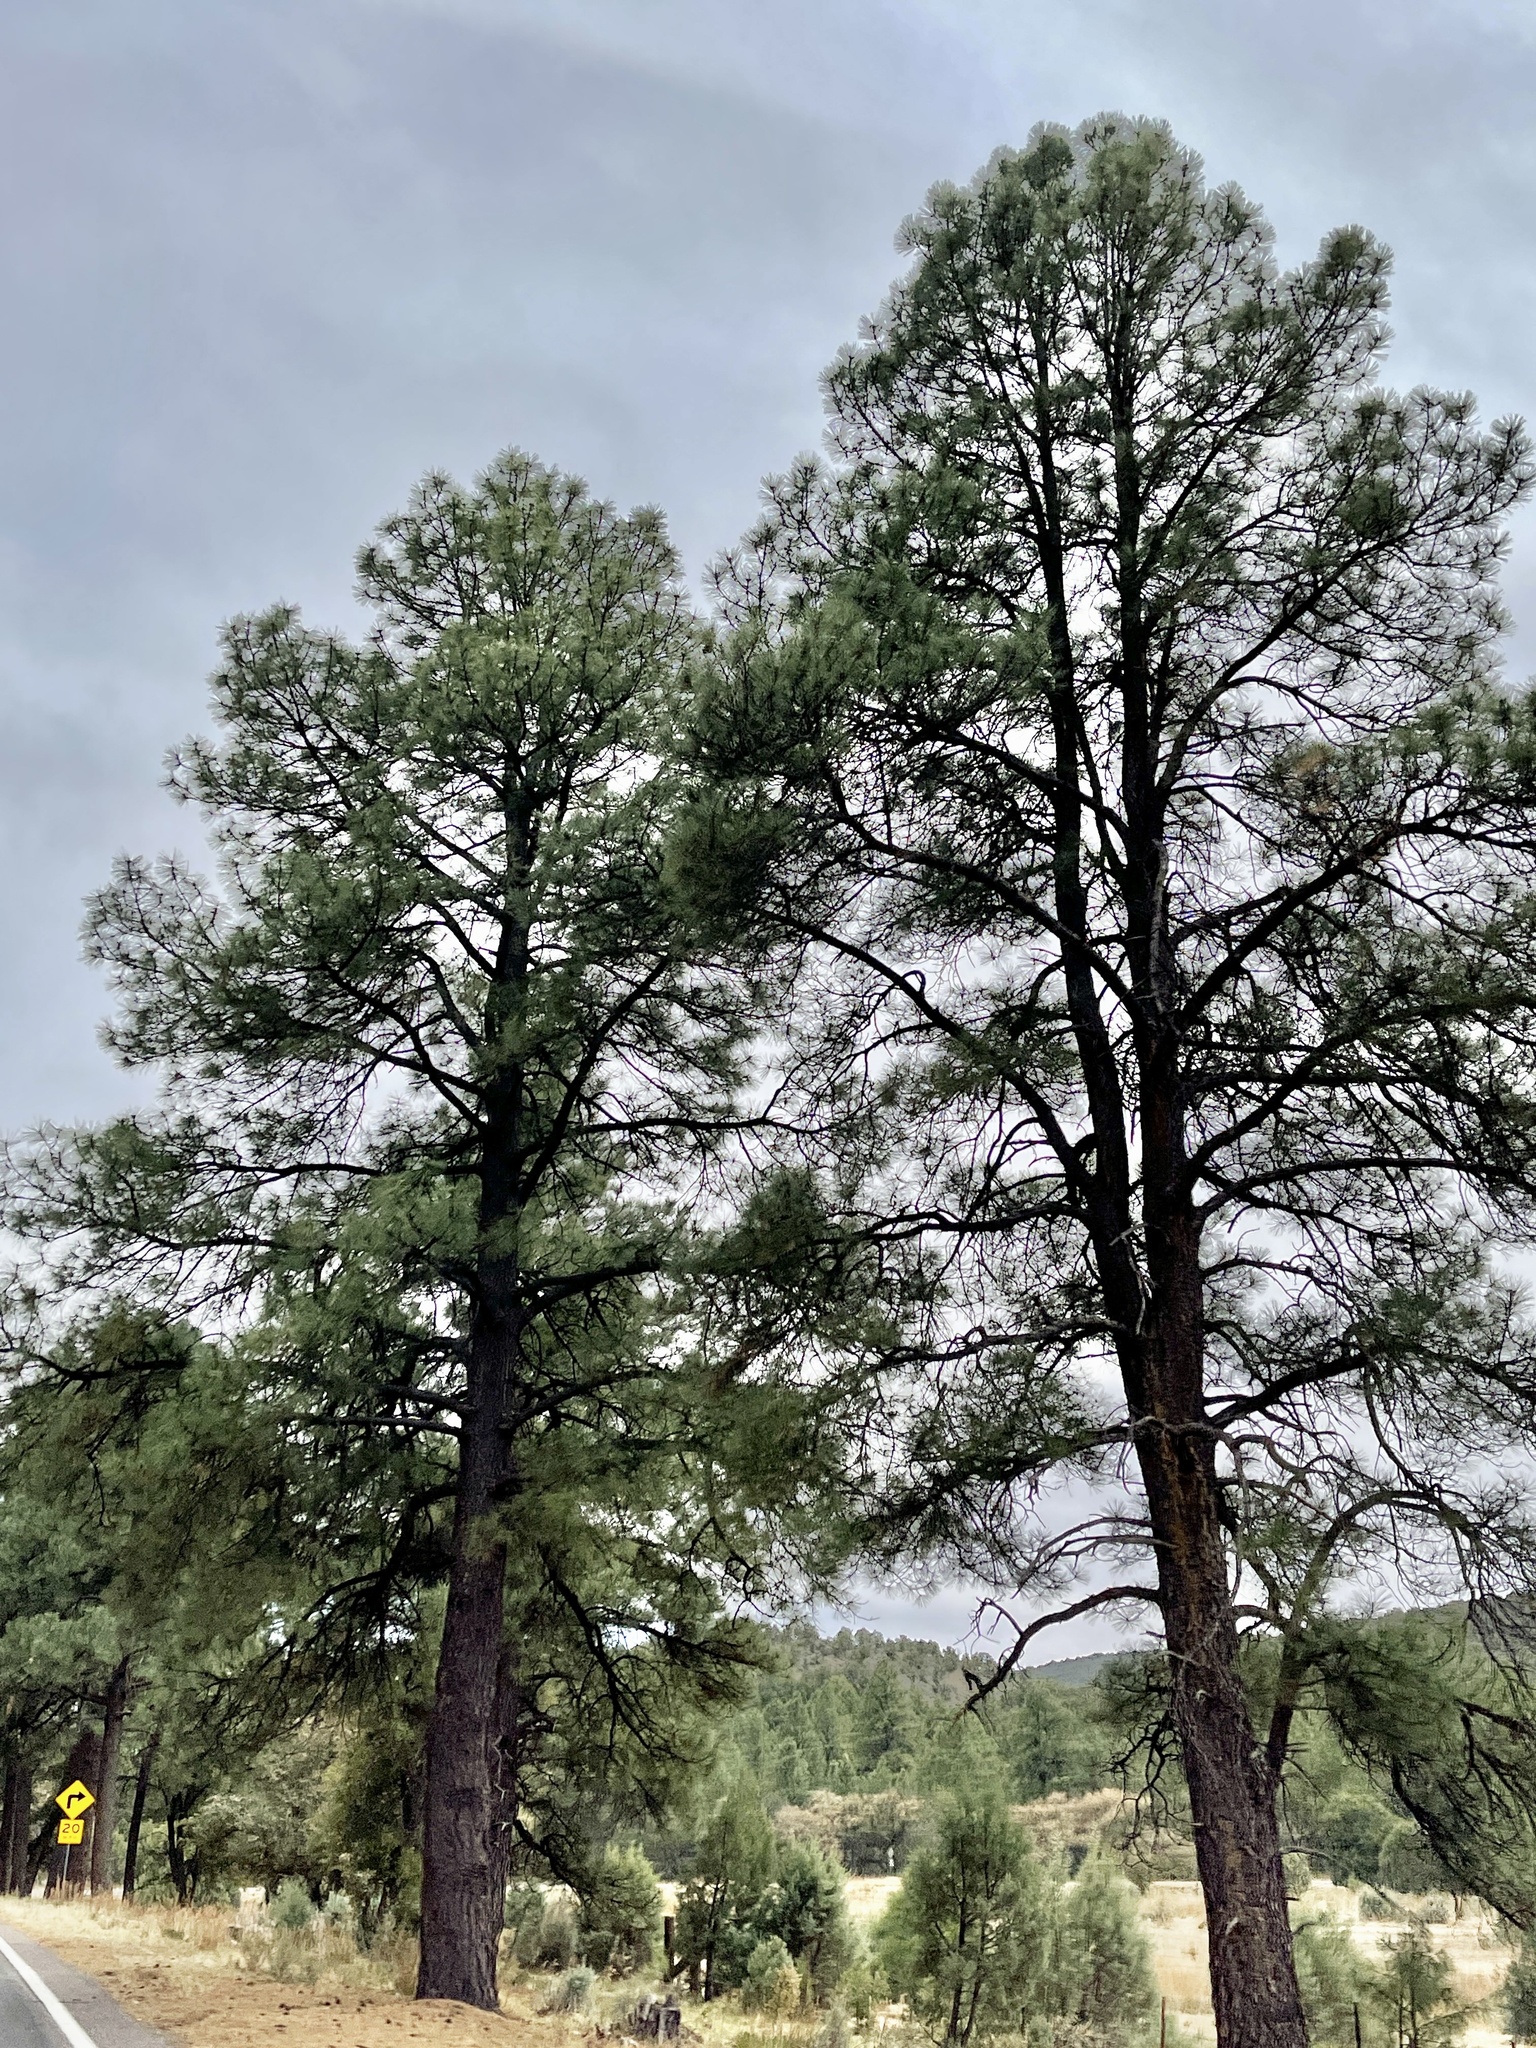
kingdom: Plantae
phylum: Tracheophyta
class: Pinopsida
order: Pinales
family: Pinaceae
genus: Pinus
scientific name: Pinus ponderosa
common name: Western yellow-pine
